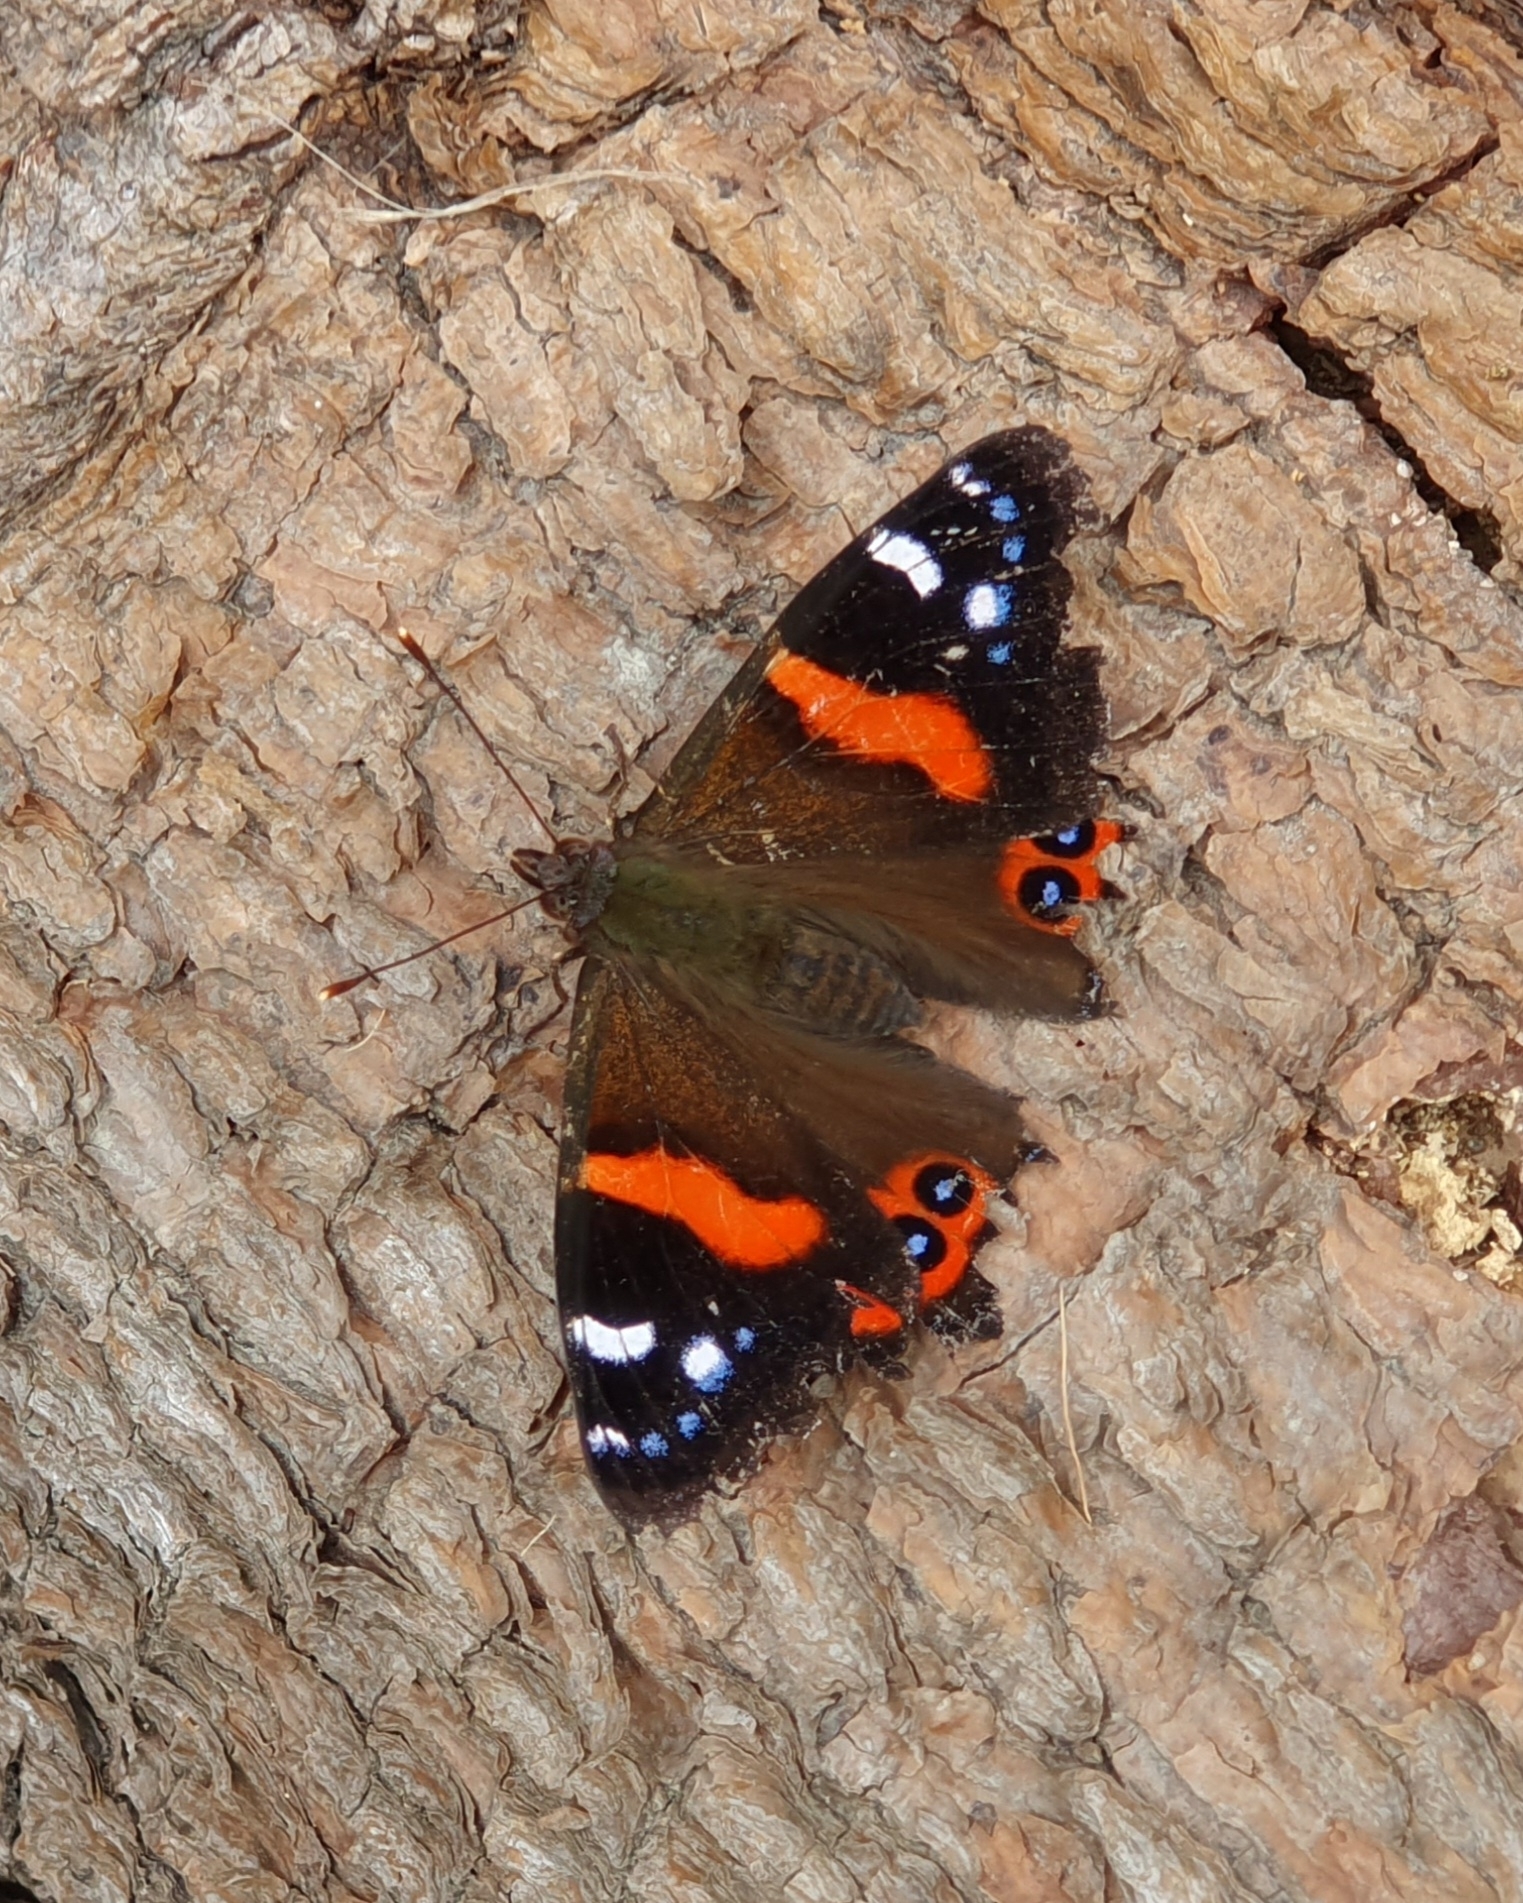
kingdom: Animalia
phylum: Arthropoda
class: Insecta
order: Lepidoptera
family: Nymphalidae
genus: Vanessa
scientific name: Vanessa gonerilla
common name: New zealand red admiral
